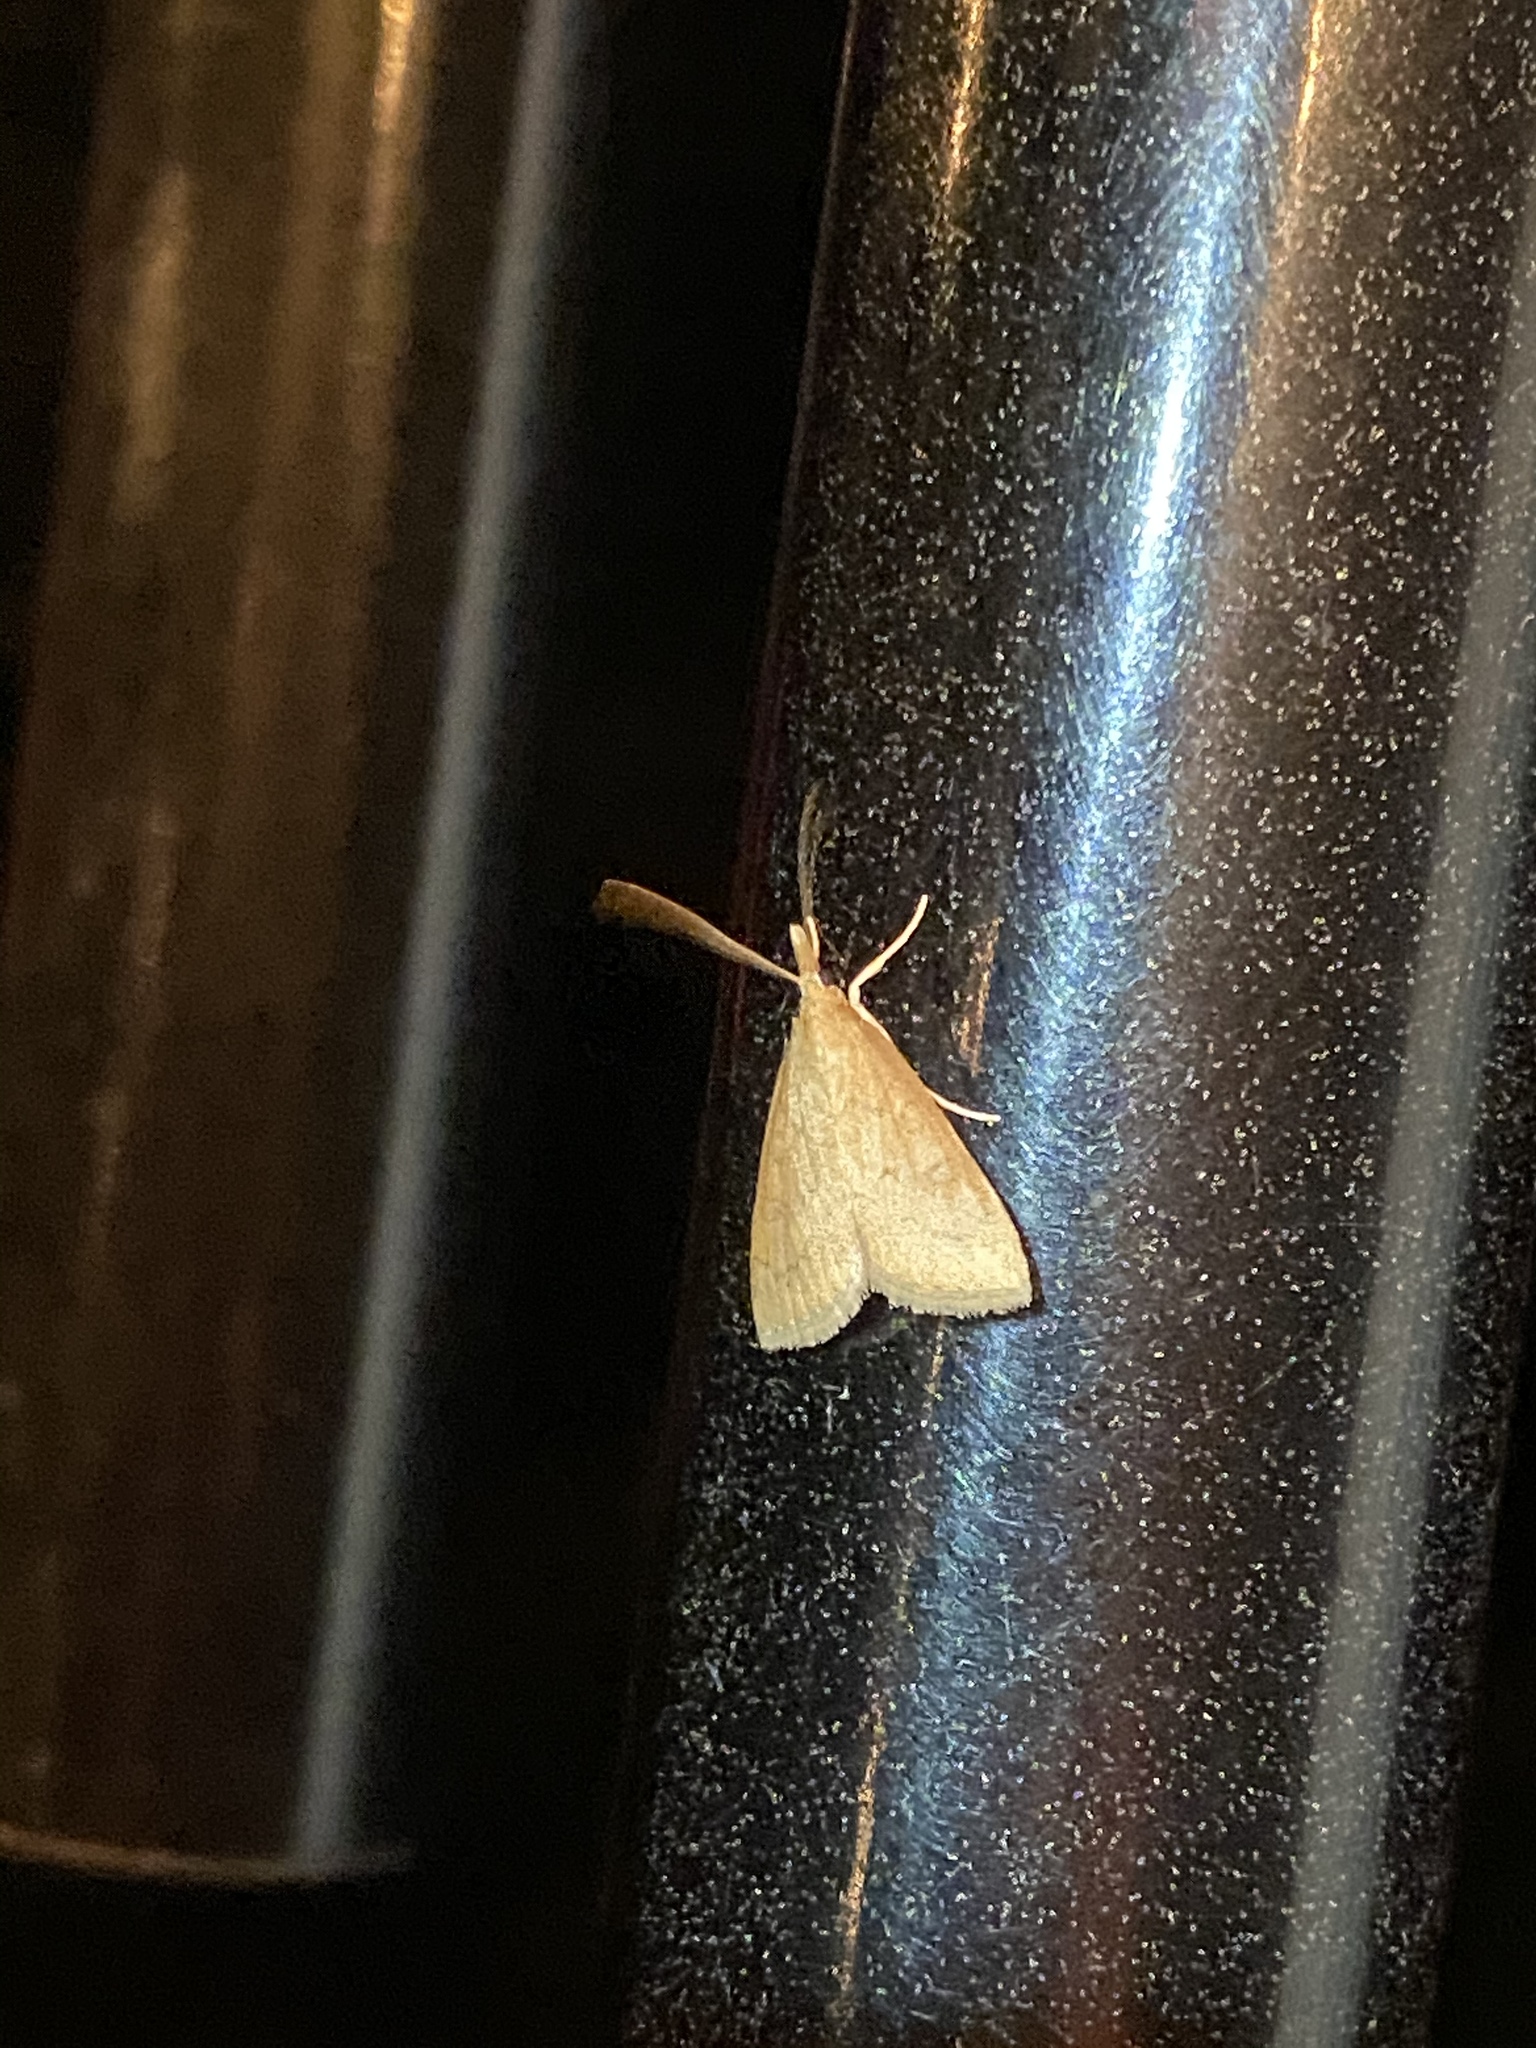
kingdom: Animalia
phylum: Arthropoda
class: Insecta
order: Lepidoptera
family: Crambidae
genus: Udea
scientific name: Udea rubigalis
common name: Celery leaftier moth
